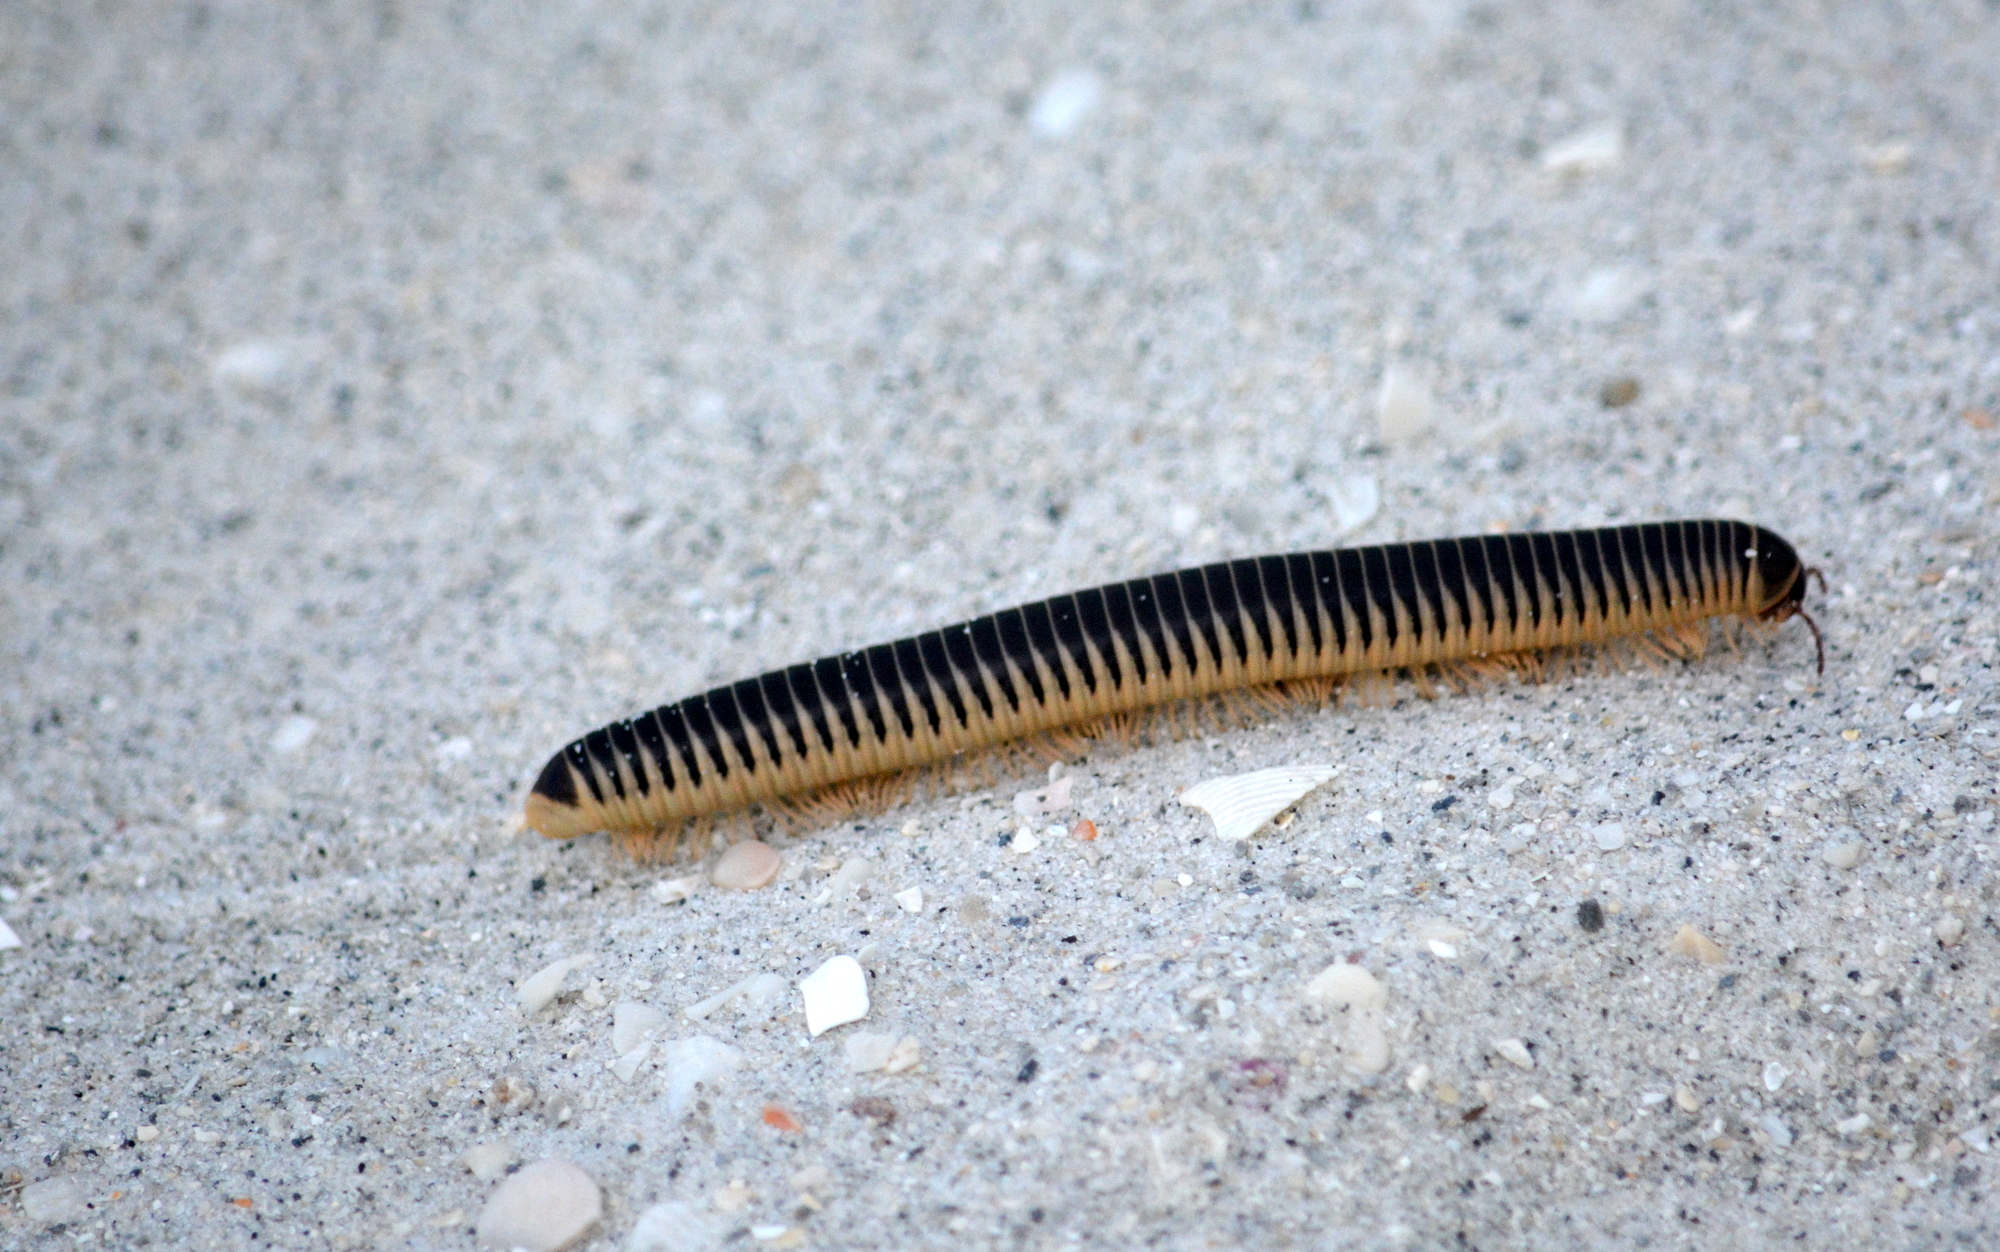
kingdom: Animalia
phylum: Arthropoda
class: Diplopoda
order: Spirobolida
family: Spirobolidae
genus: Chicobolus
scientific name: Chicobolus spinigerus
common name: Florida ivory millipede
